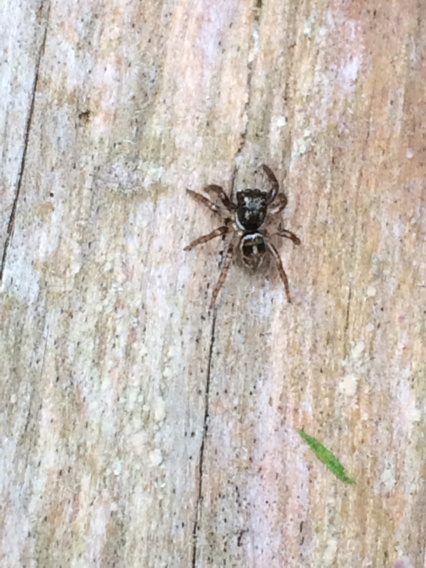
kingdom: Animalia
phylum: Arthropoda
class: Arachnida
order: Araneae
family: Salticidae
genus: Anasaitis
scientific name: Anasaitis canosa
